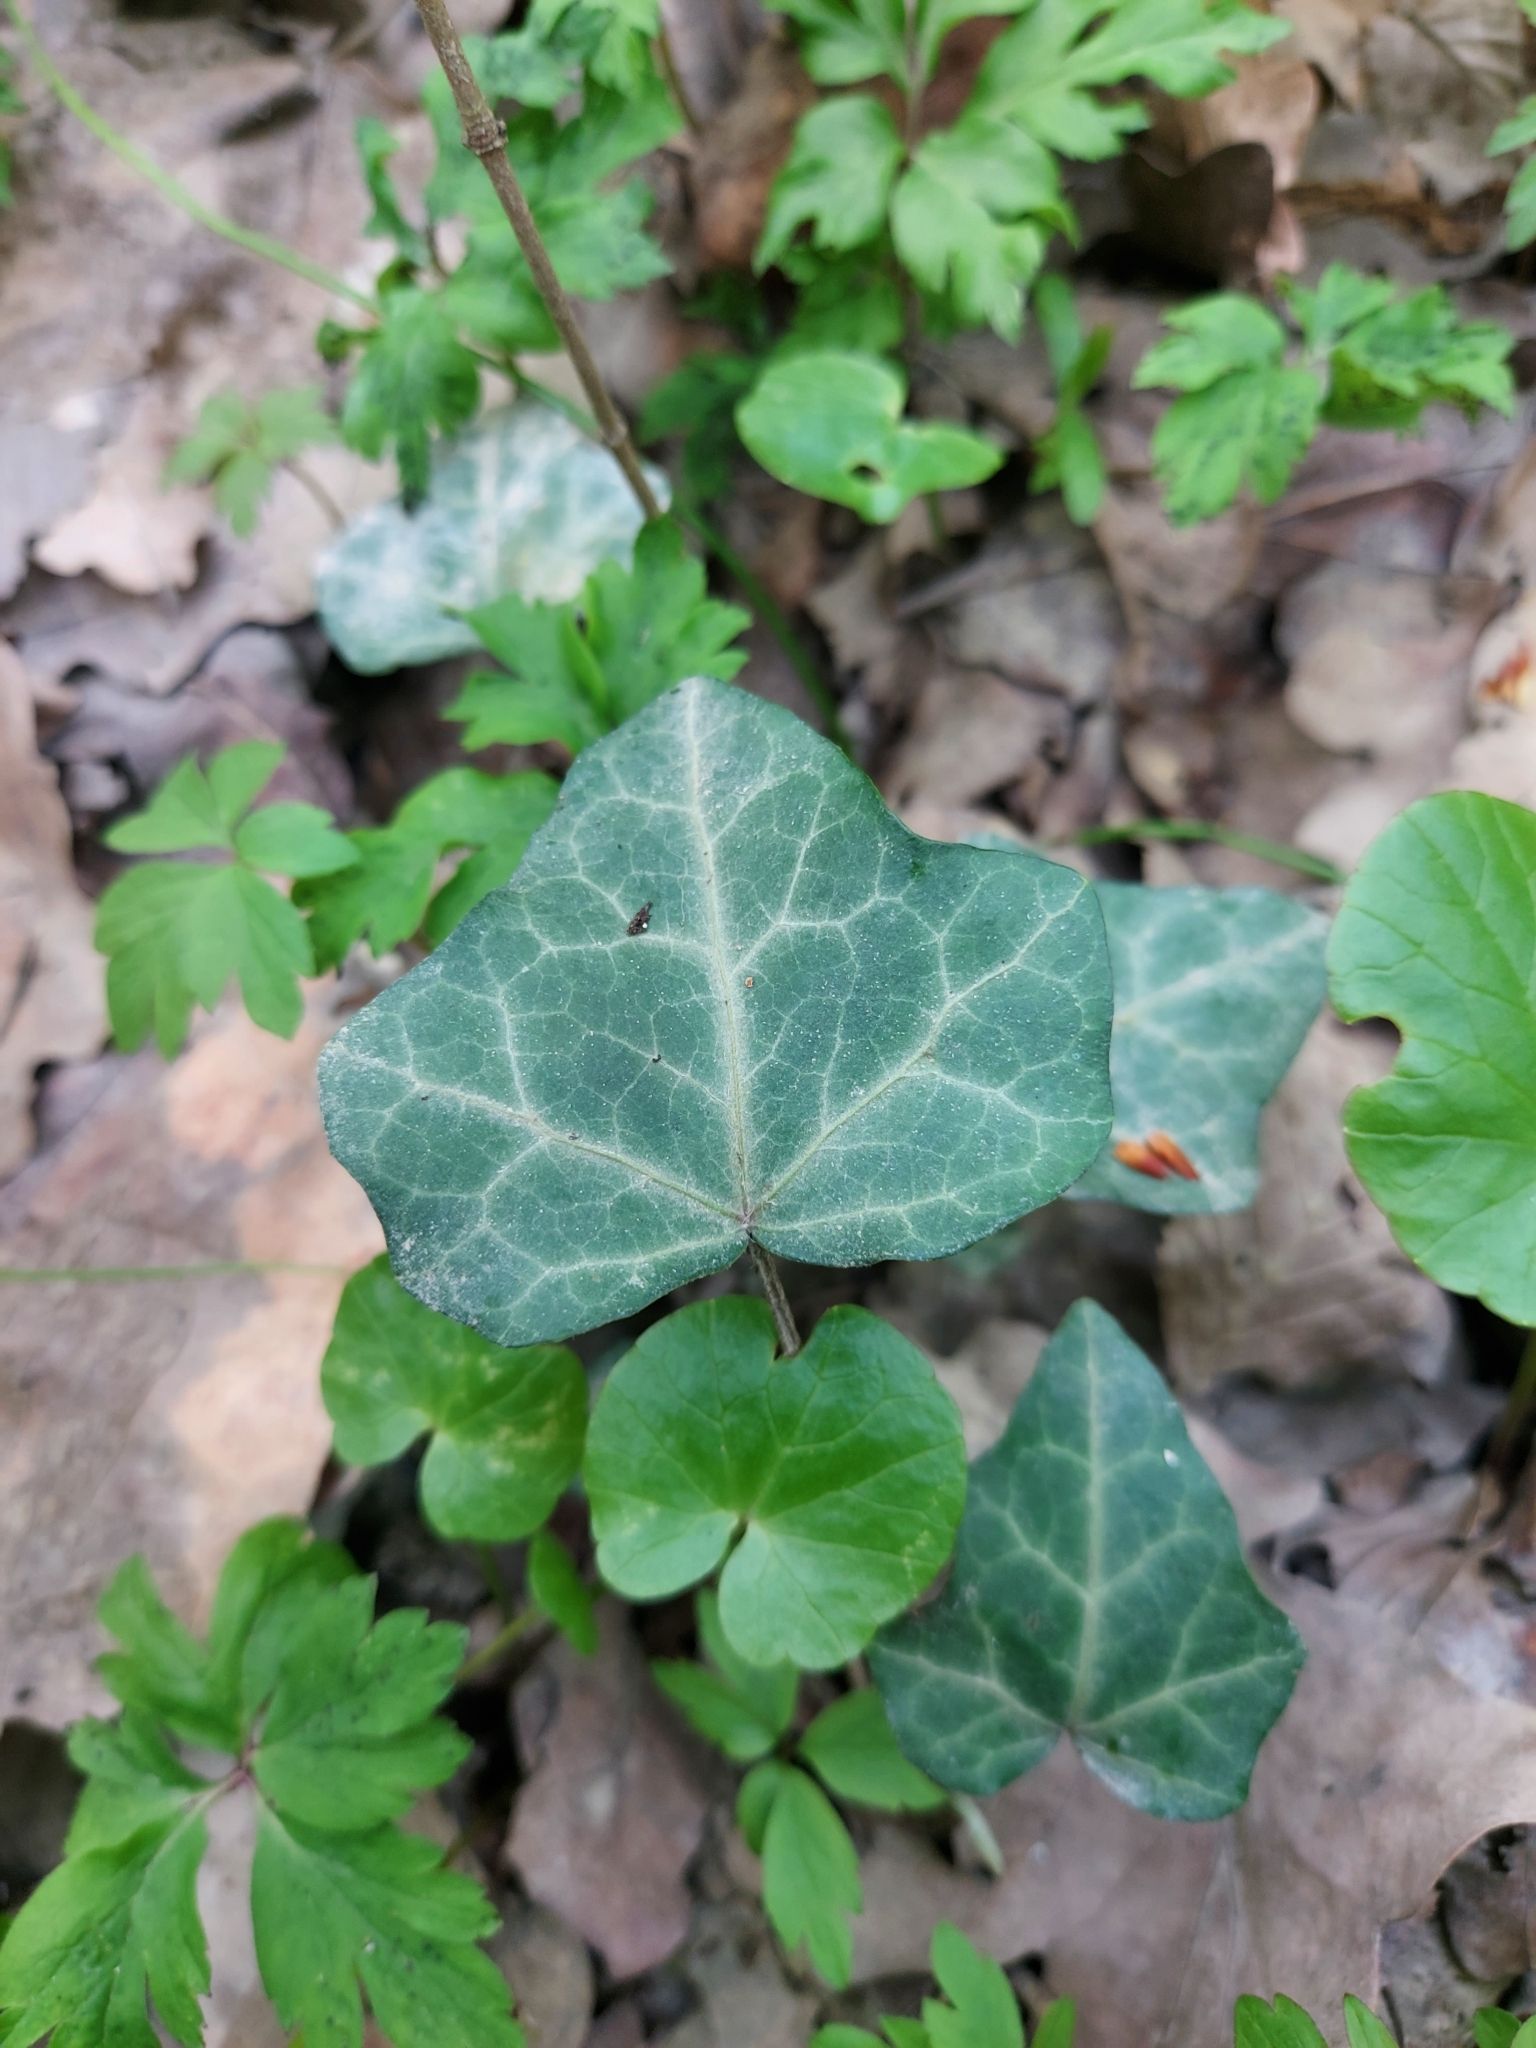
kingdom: Plantae
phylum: Tracheophyta
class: Magnoliopsida
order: Apiales
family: Araliaceae
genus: Hedera
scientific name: Hedera helix
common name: Ivy
